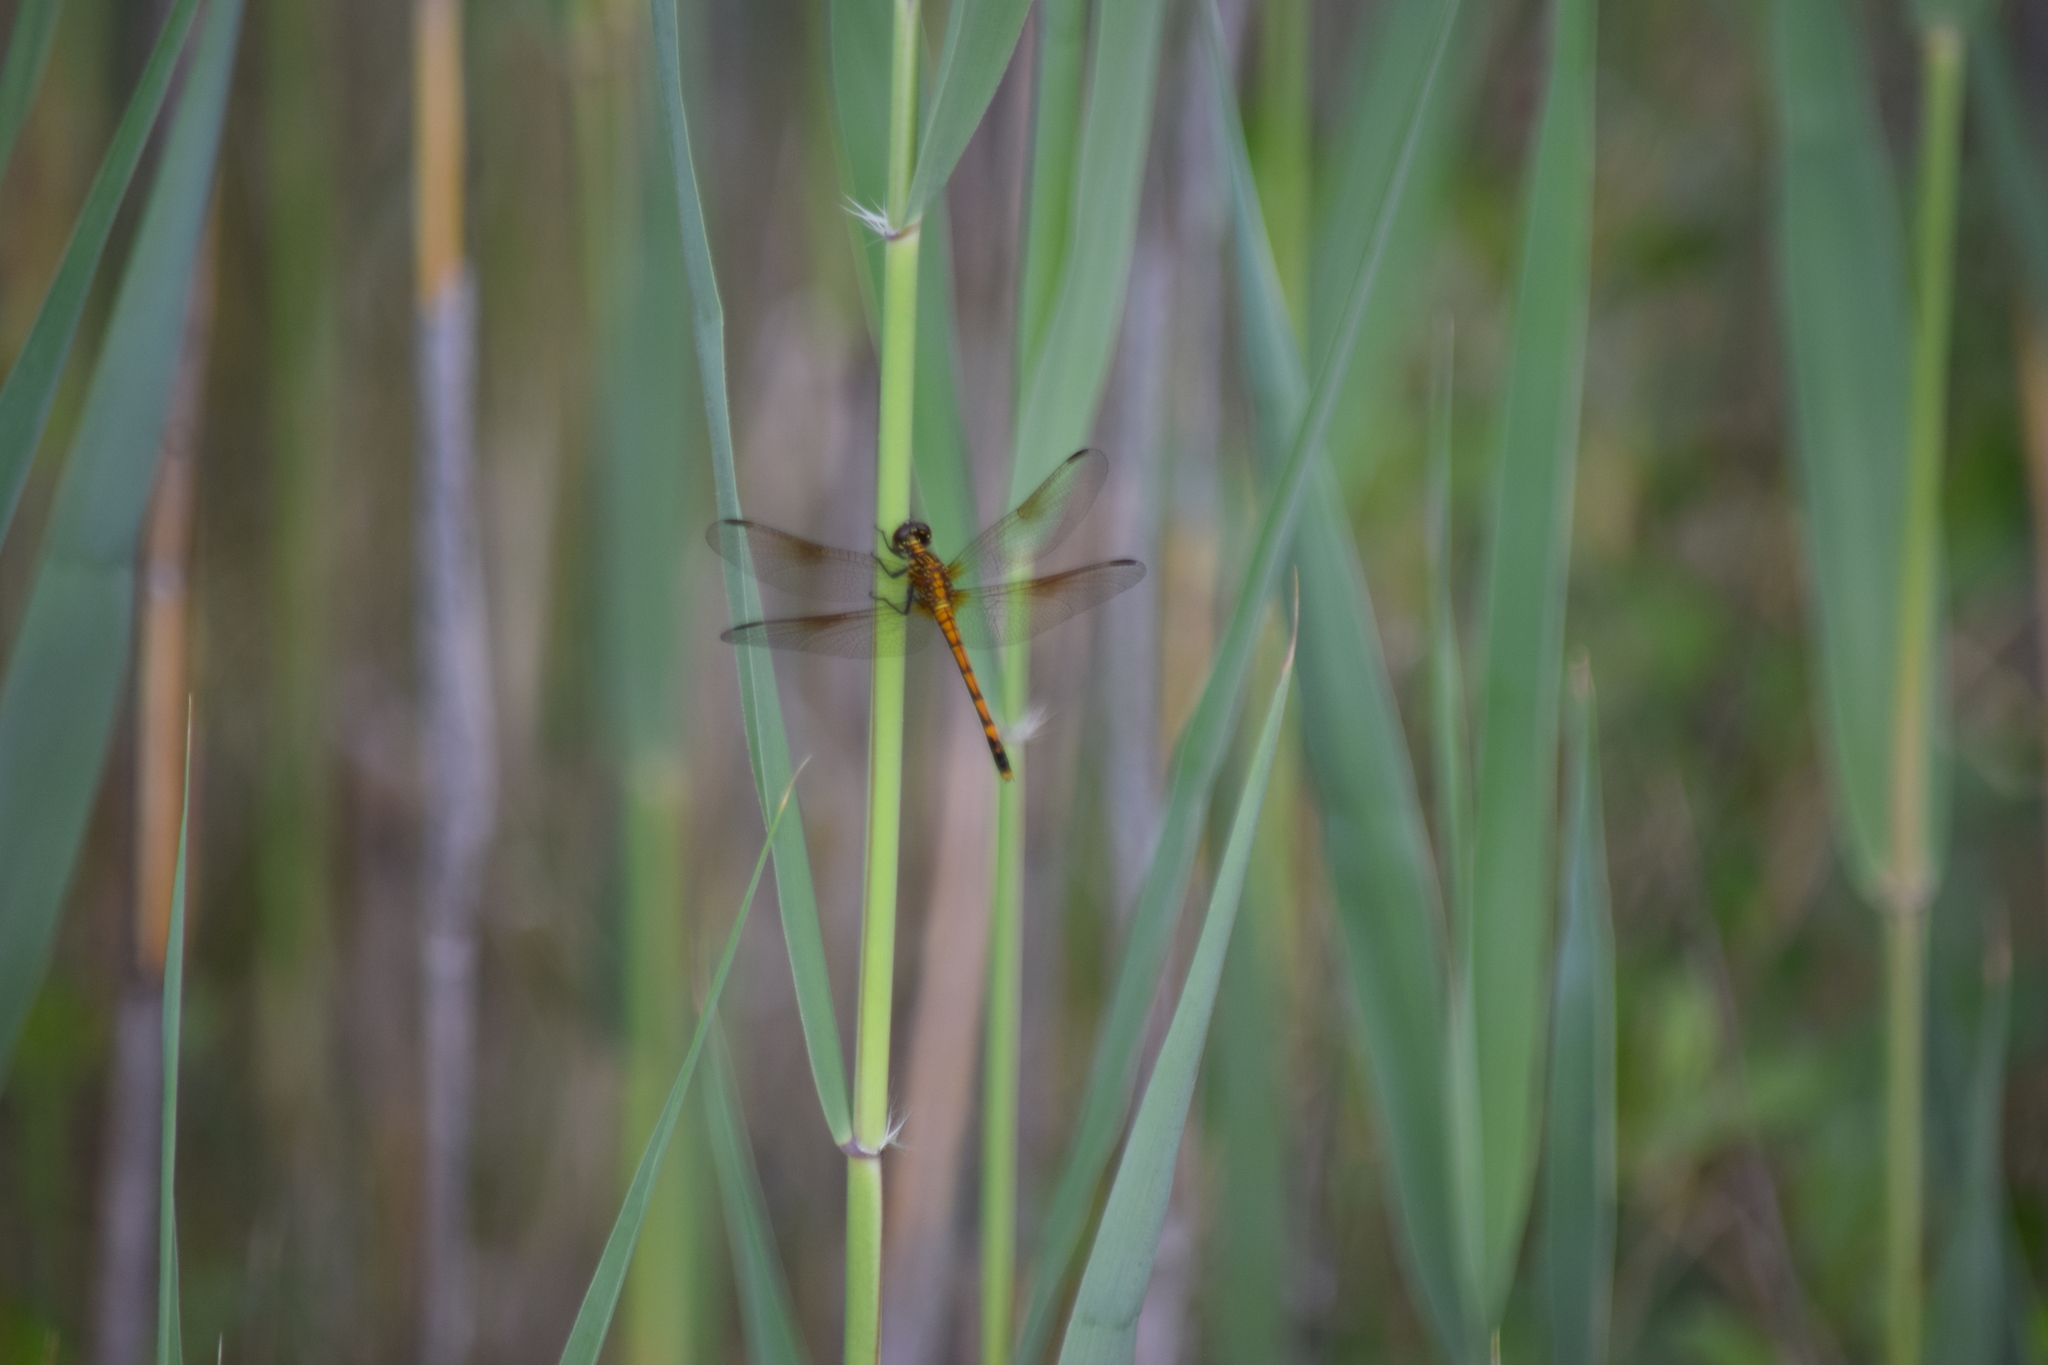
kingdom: Animalia
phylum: Arthropoda
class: Insecta
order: Odonata
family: Libellulidae
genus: Erythrodiplax
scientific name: Erythrodiplax berenice
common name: Seaside dragonlet
